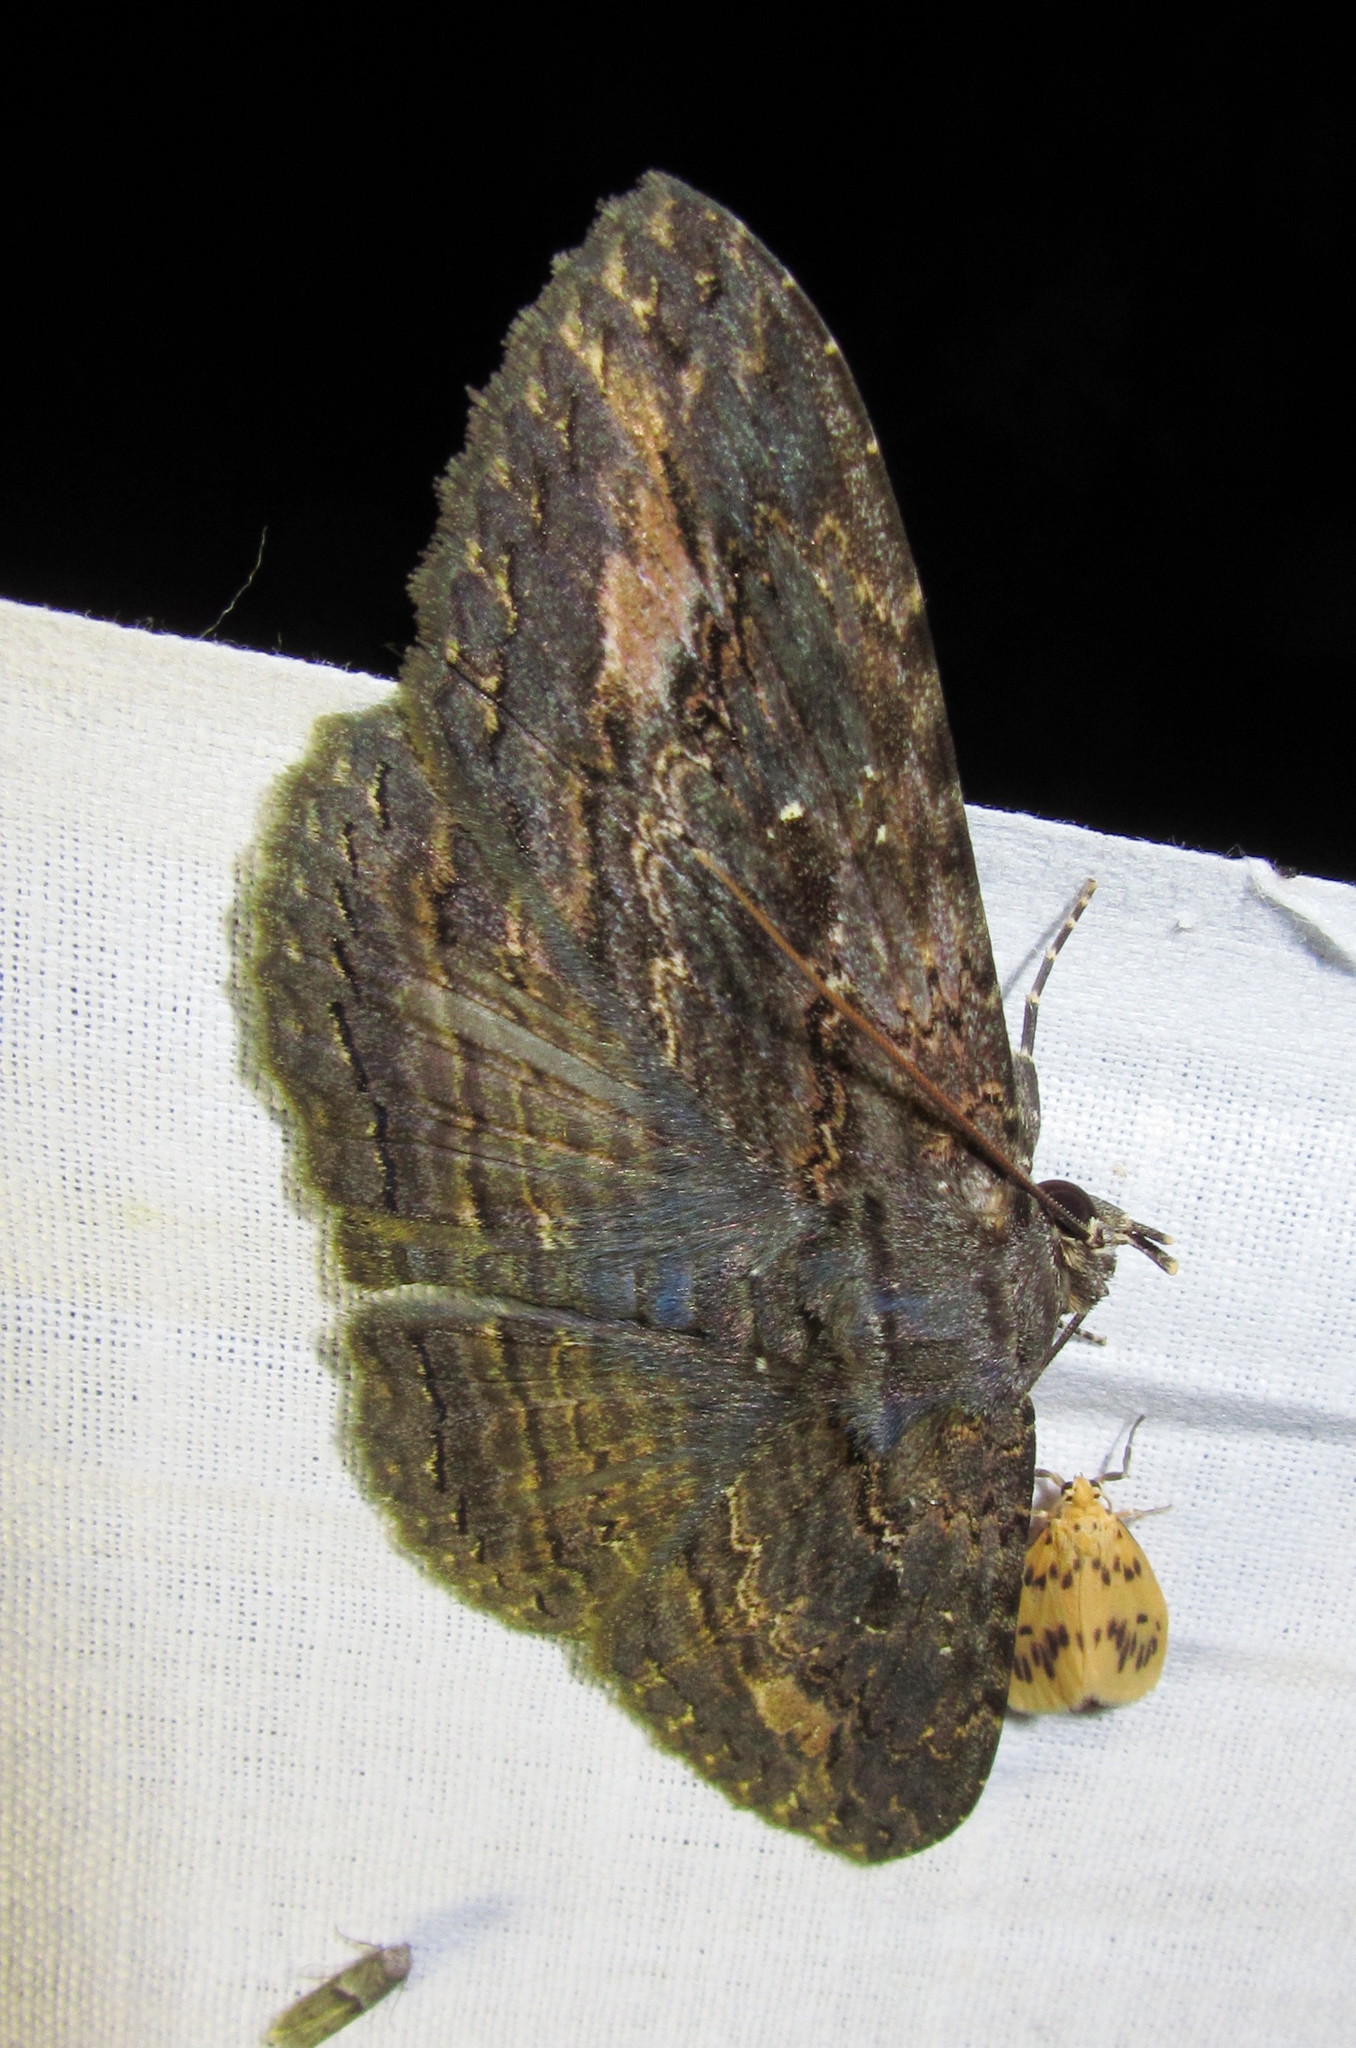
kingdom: Animalia
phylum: Arthropoda
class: Insecta
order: Lepidoptera
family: Erebidae
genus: Anisoneura
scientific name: Anisoneura salebrosa
